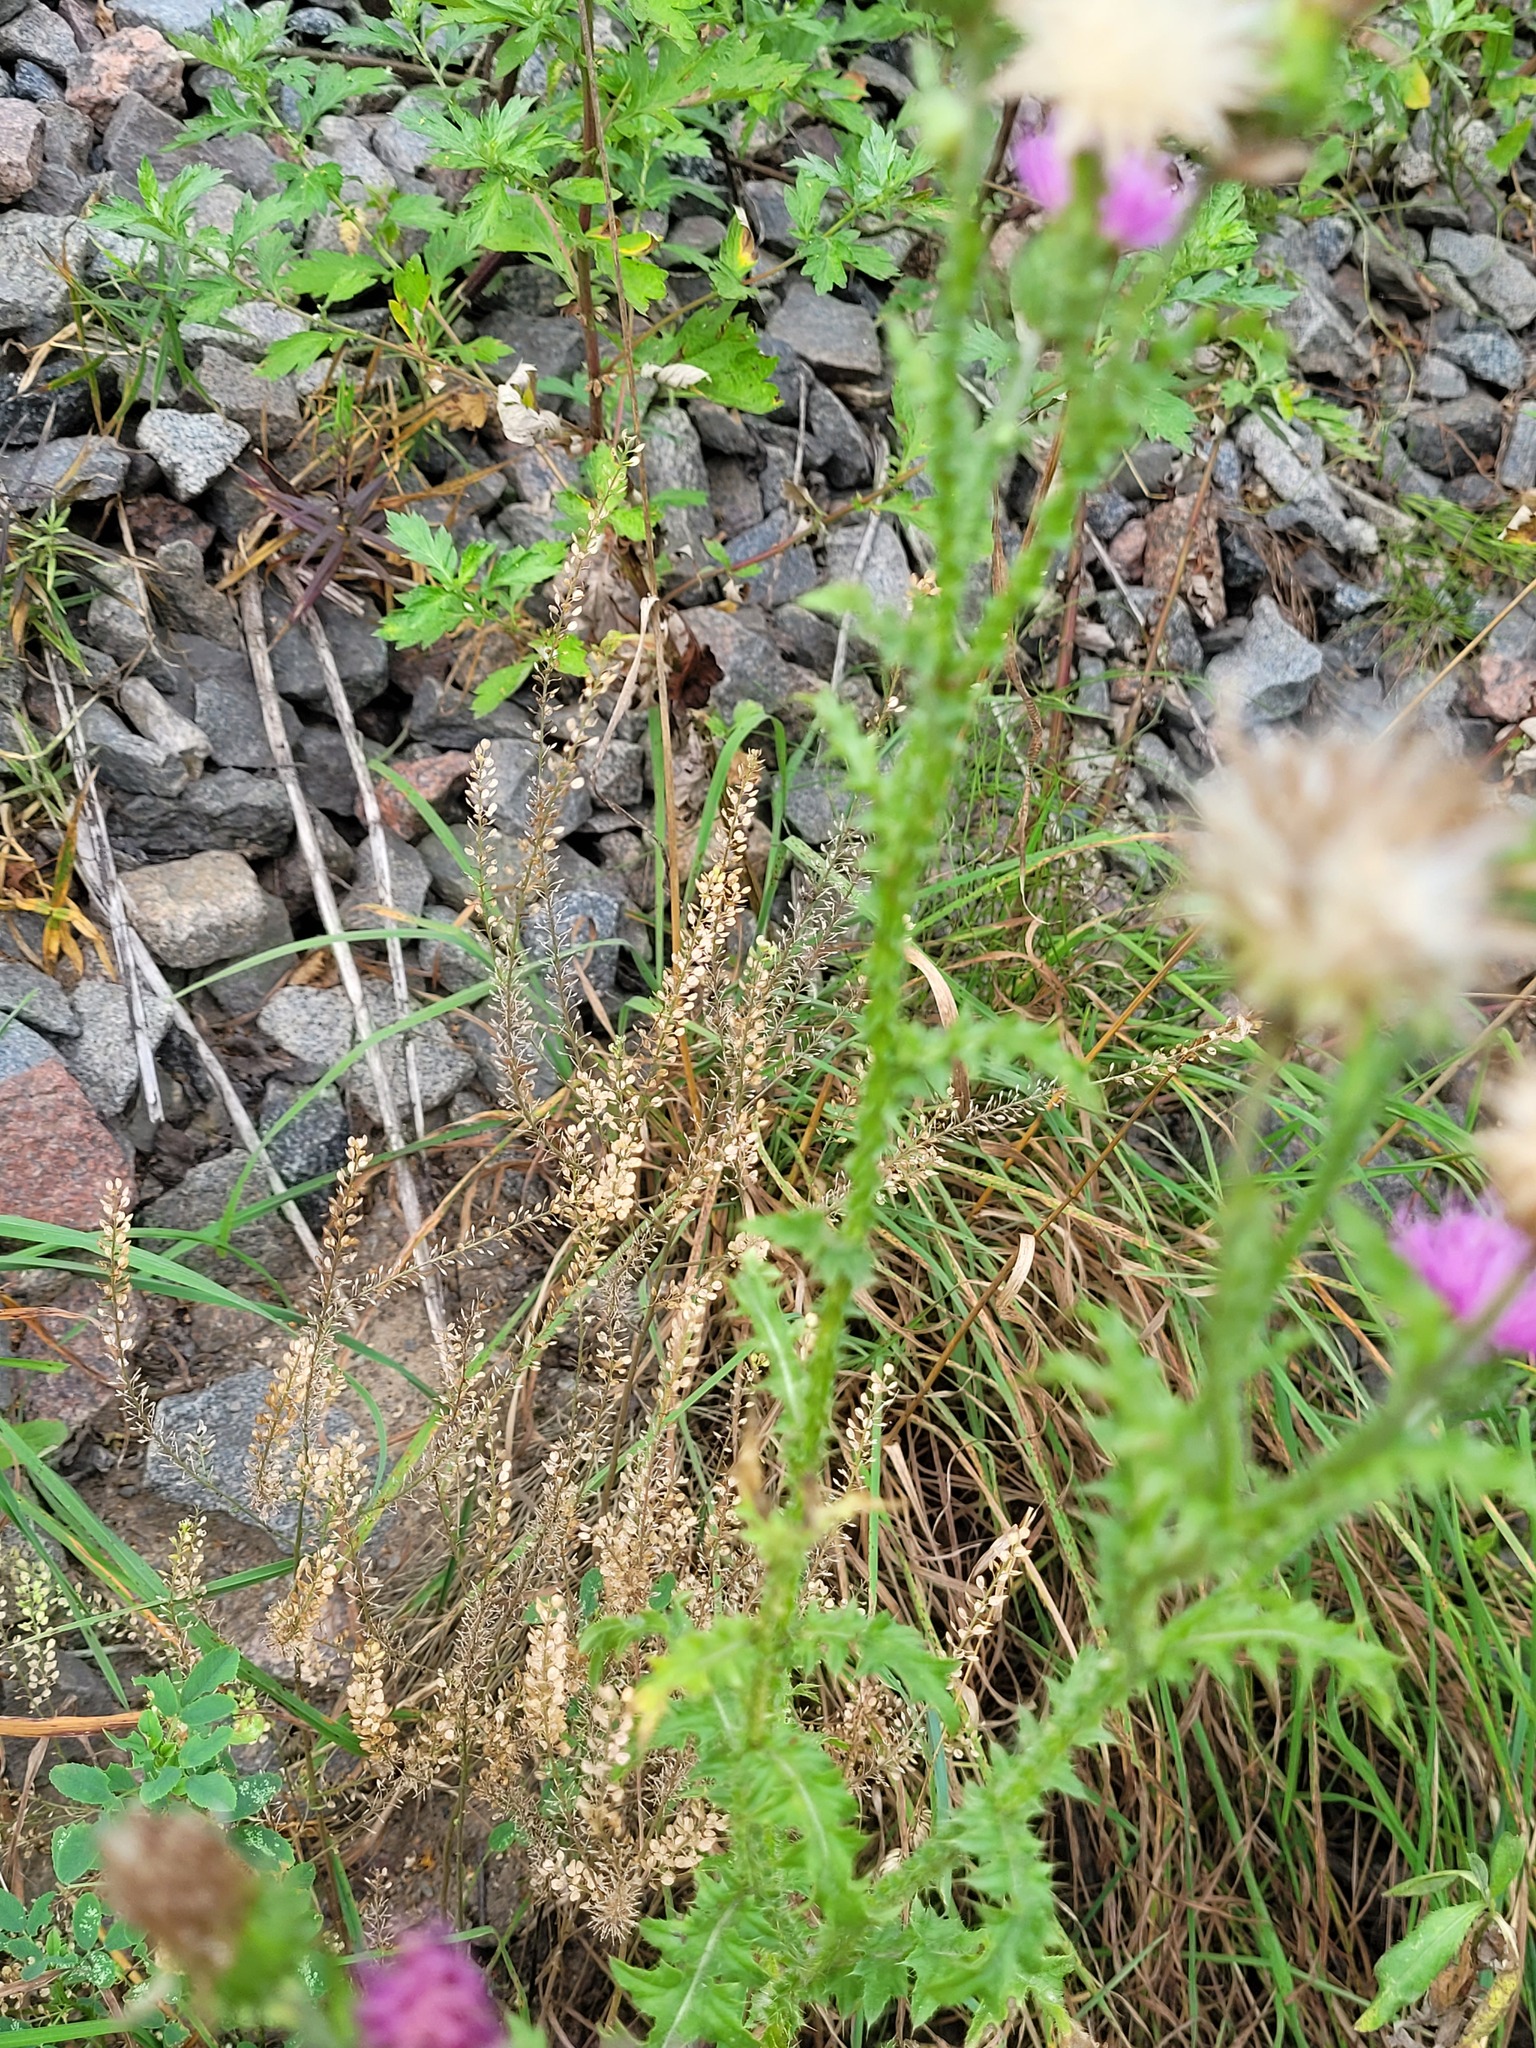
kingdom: Plantae
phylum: Tracheophyta
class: Magnoliopsida
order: Brassicales
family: Brassicaceae
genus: Lepidium
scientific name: Lepidium densiflorum
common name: Miner's pepperwort
